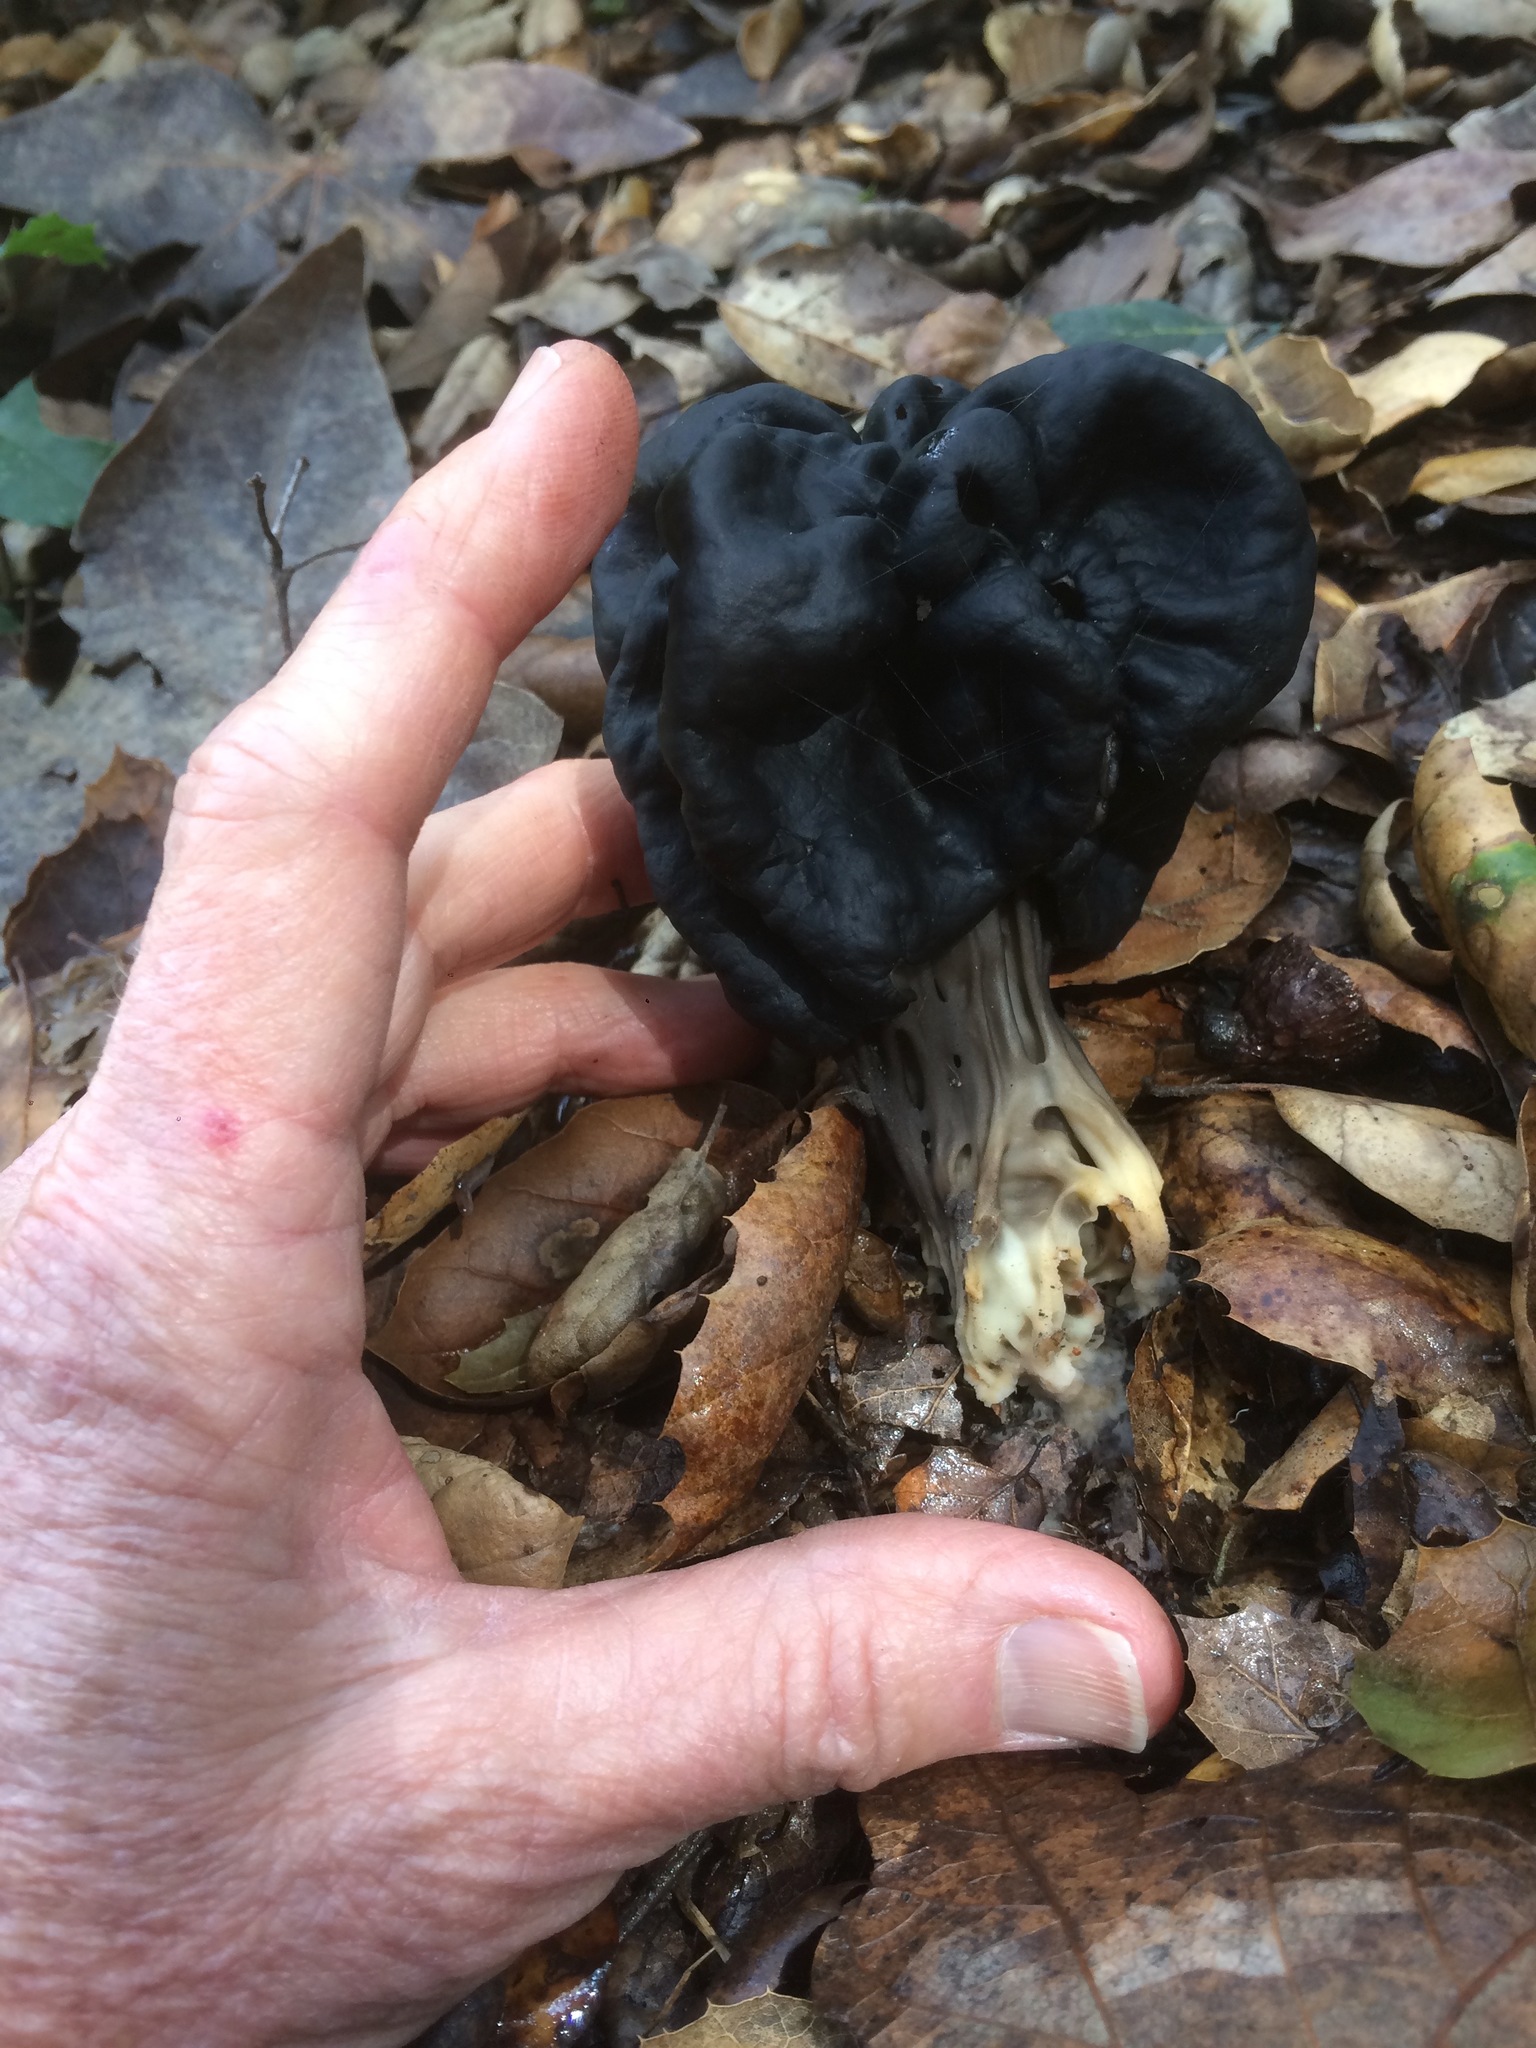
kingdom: Fungi
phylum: Ascomycota
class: Pezizomycetes
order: Pezizales
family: Helvellaceae
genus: Helvella
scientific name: Helvella dryophila
